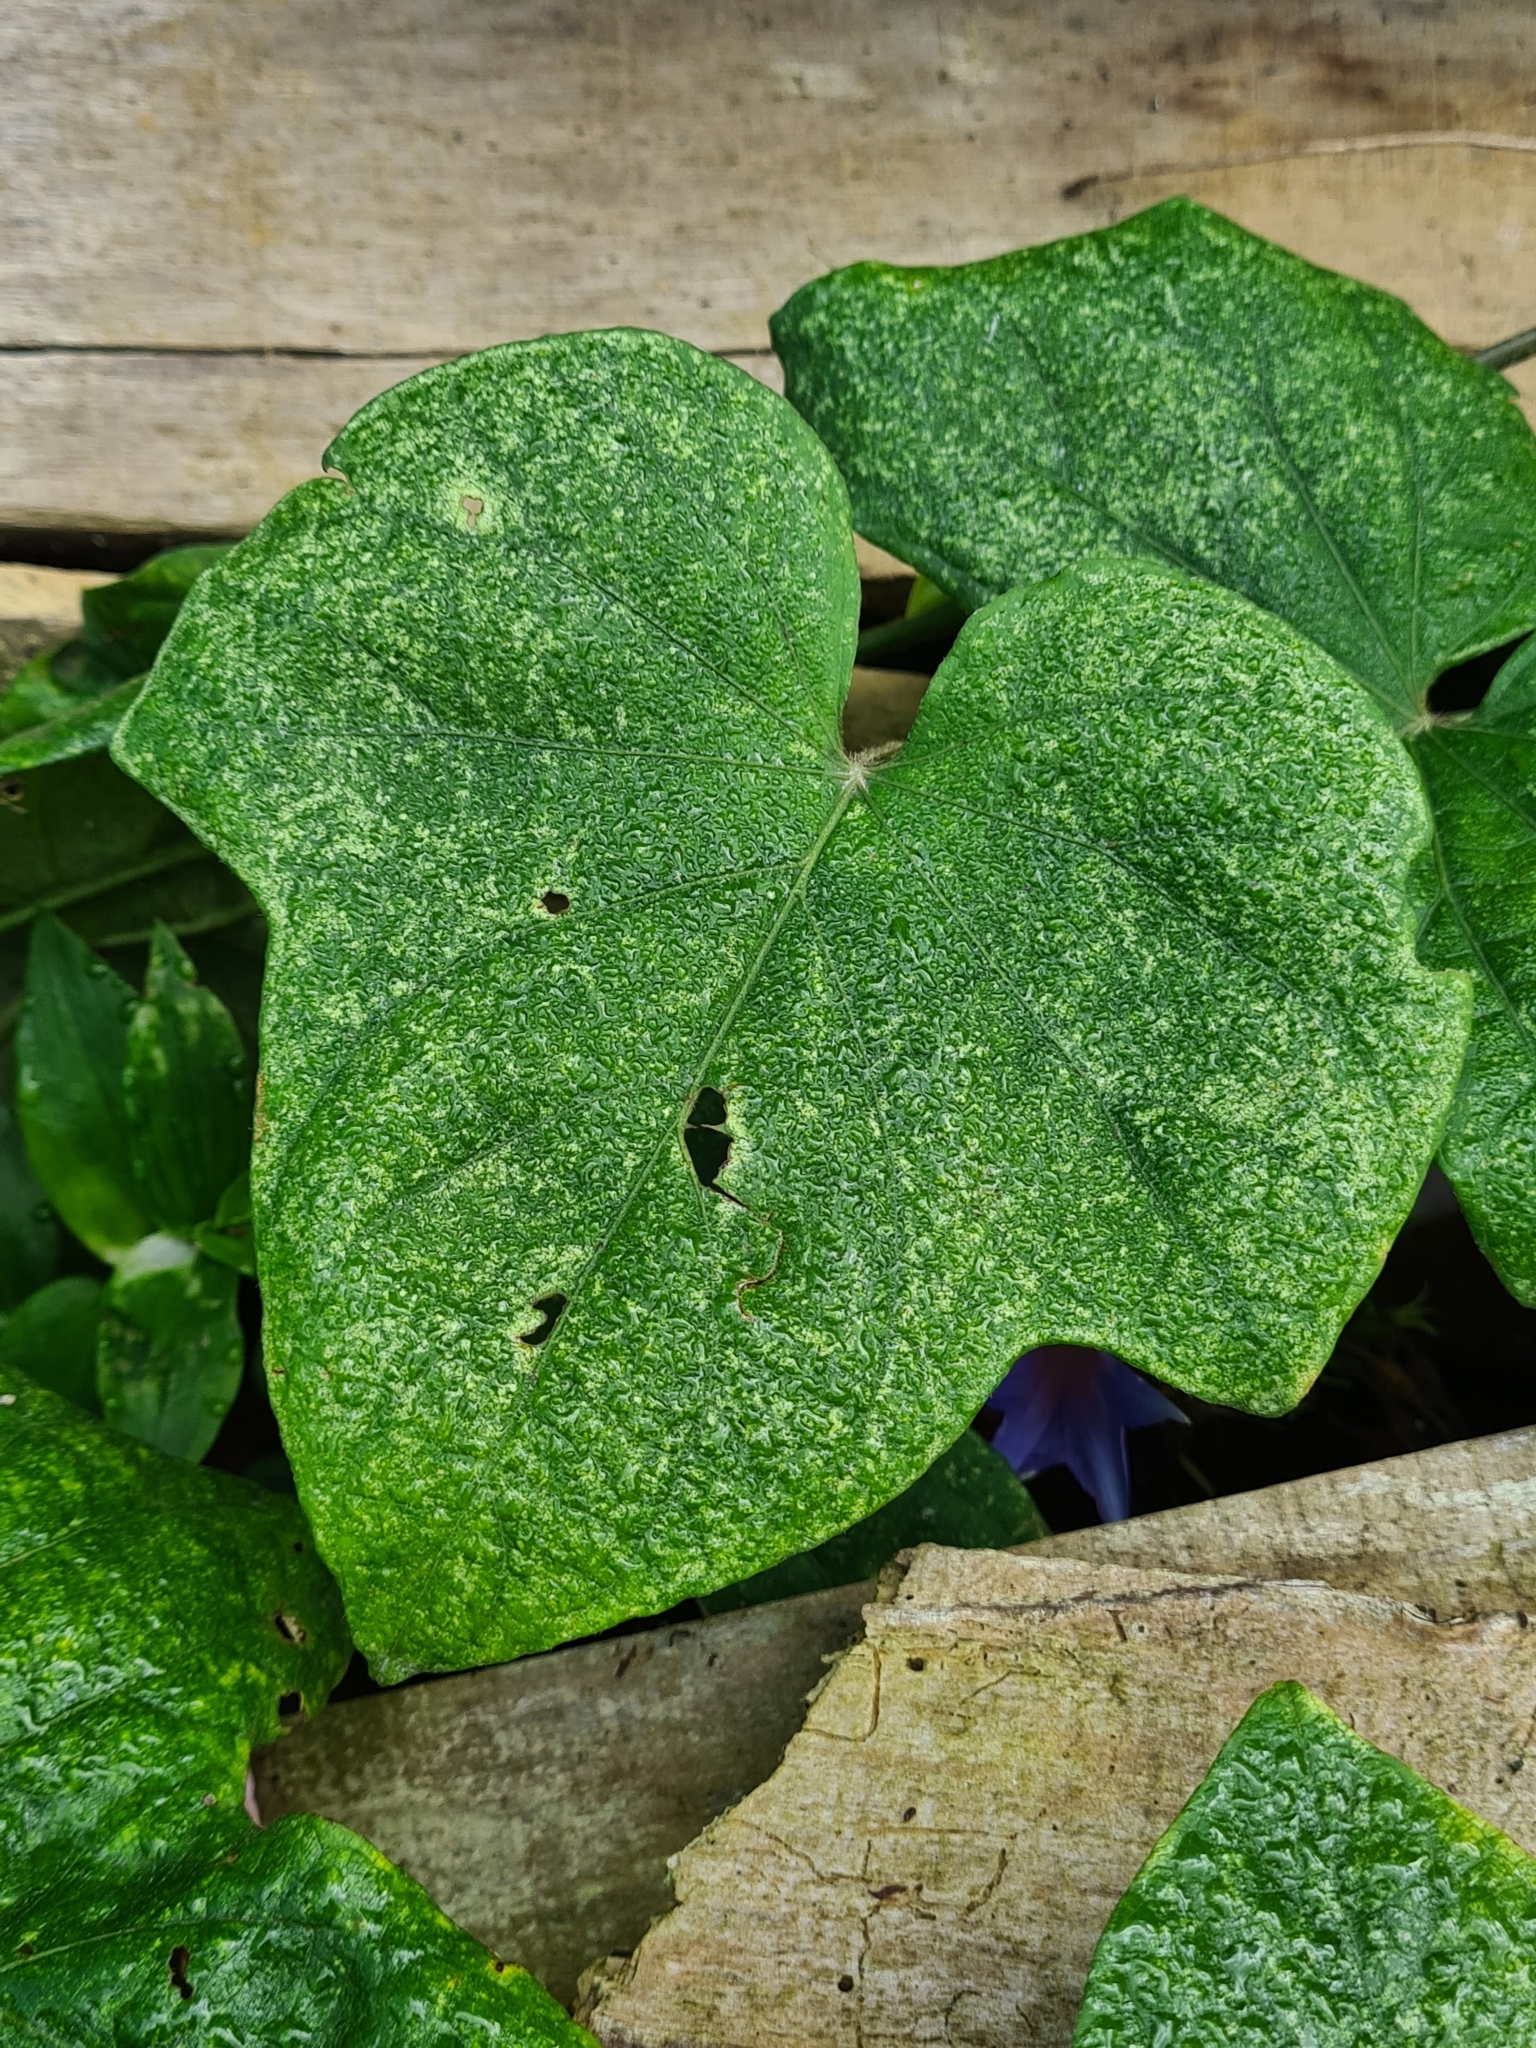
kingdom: Plantae
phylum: Tracheophyta
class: Magnoliopsida
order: Solanales
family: Convolvulaceae
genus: Ipomoea
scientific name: Ipomoea indica
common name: Blue dawnflower
